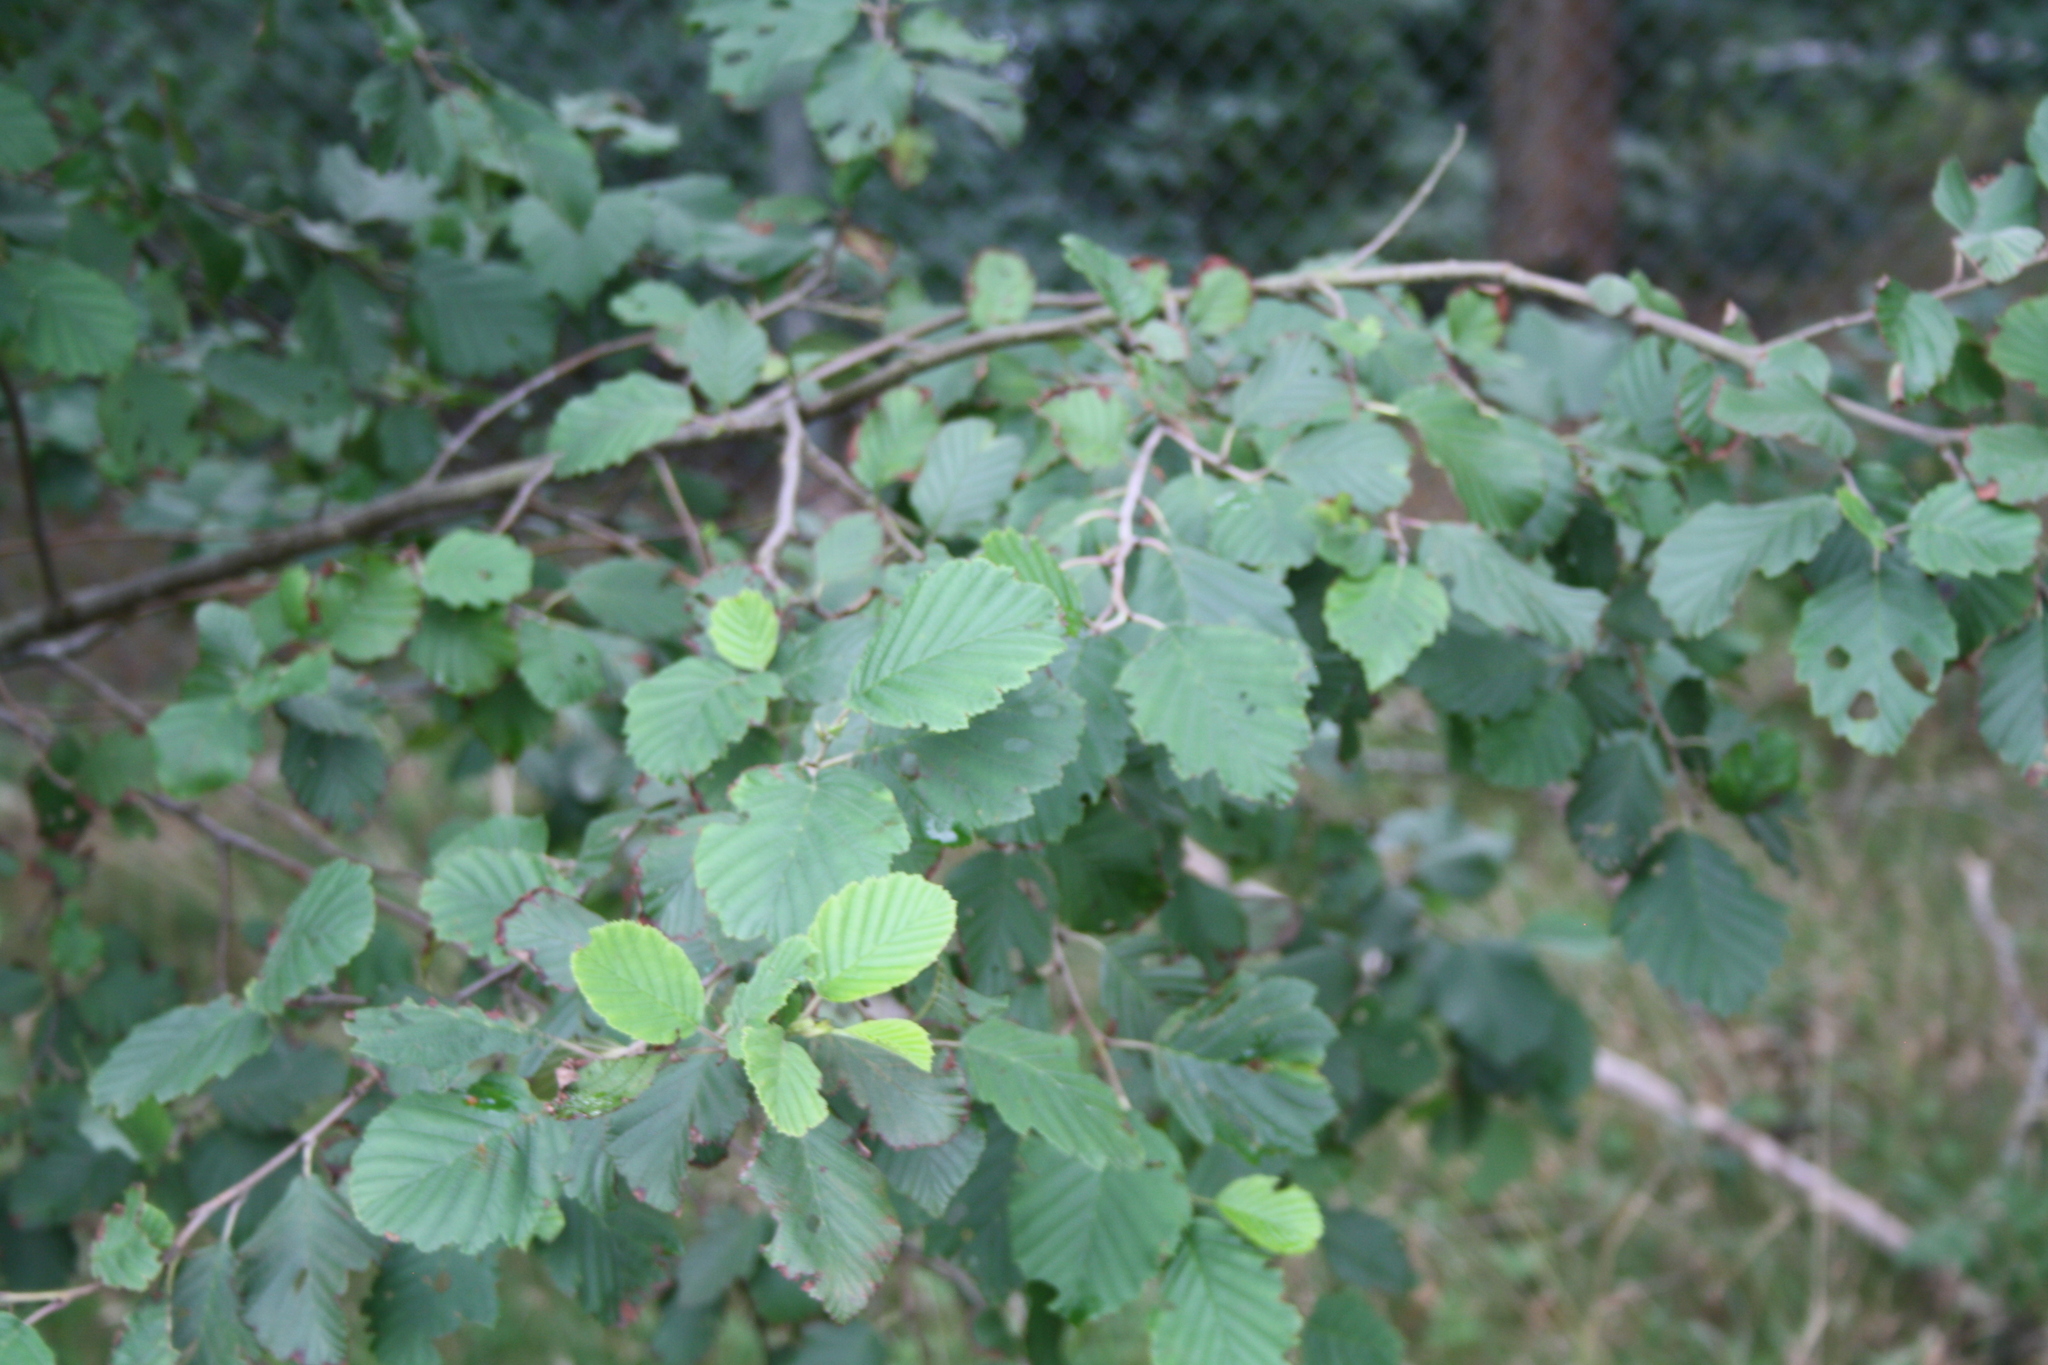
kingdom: Plantae
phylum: Tracheophyta
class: Magnoliopsida
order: Fagales
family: Betulaceae
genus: Alnus
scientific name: Alnus incana
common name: Grey alder
